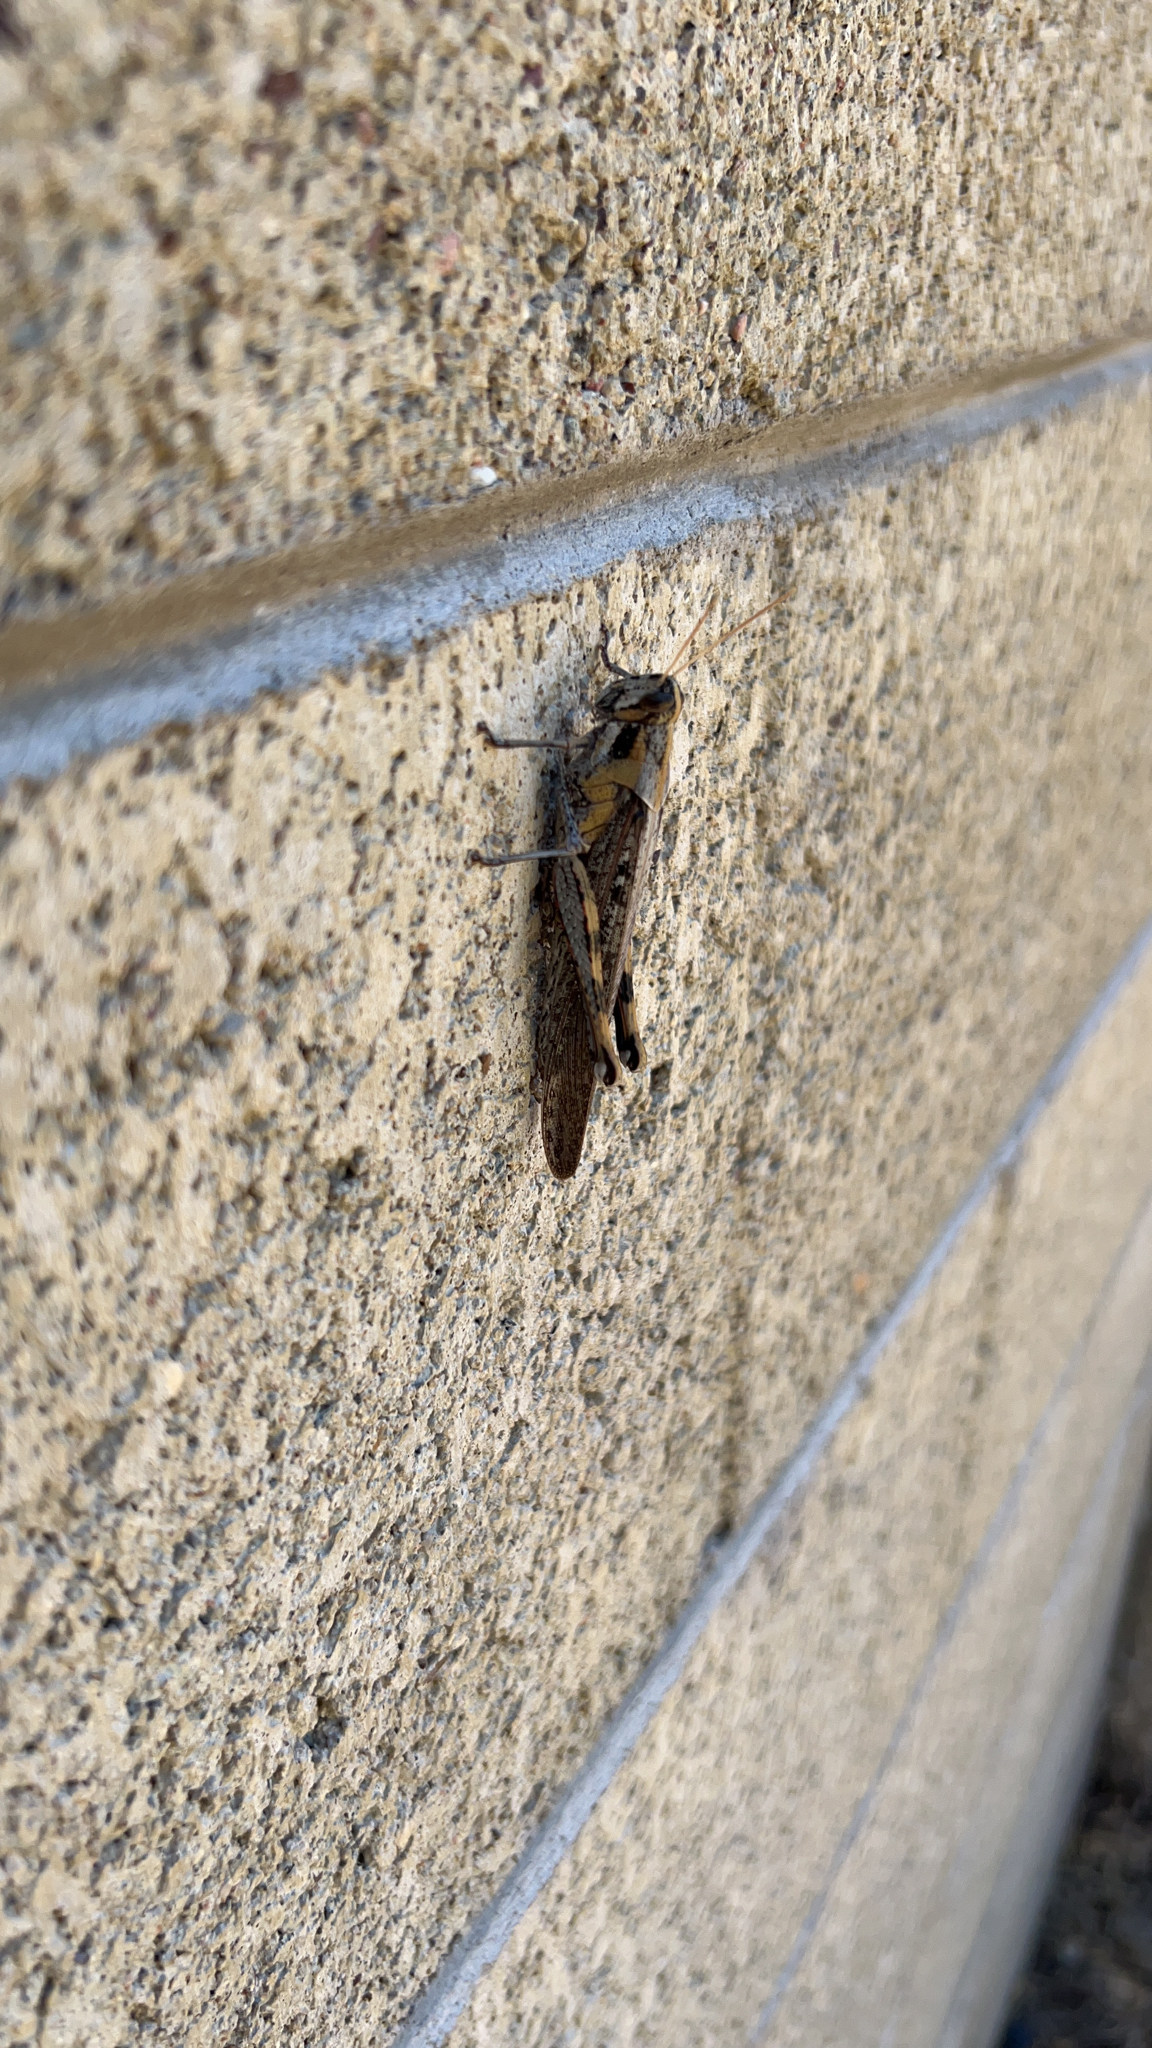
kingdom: Animalia
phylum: Arthropoda
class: Insecta
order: Orthoptera
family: Acrididae
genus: Schistocerca
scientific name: Schistocerca nitens
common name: Vagrant grasshopper
